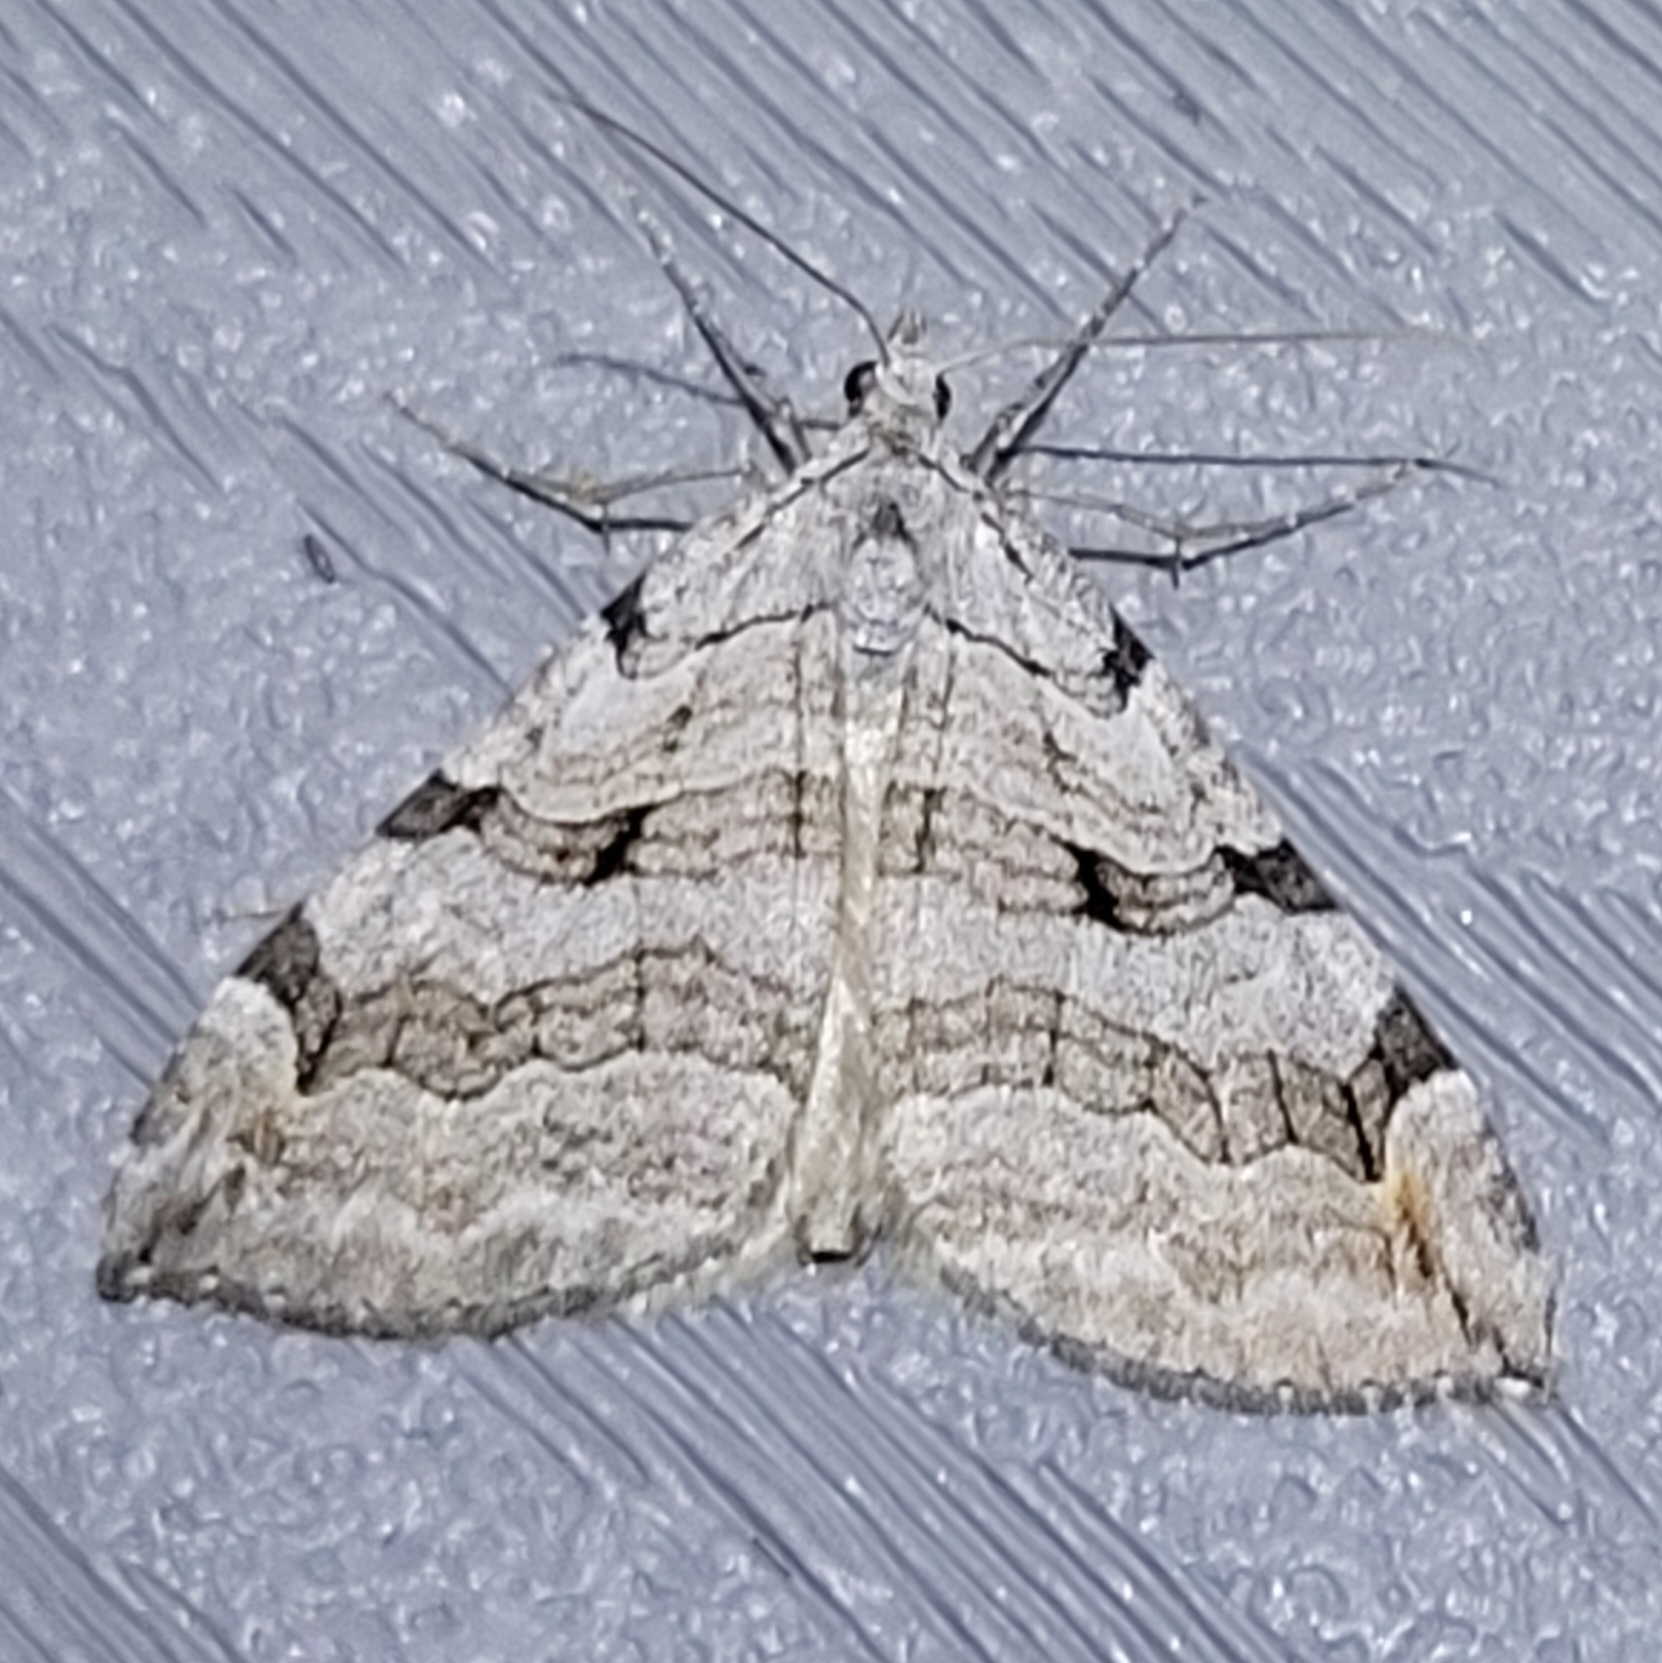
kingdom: Animalia
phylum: Arthropoda
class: Insecta
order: Lepidoptera
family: Geometridae
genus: Aplocera
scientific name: Aplocera plagiata
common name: Treble-bar
